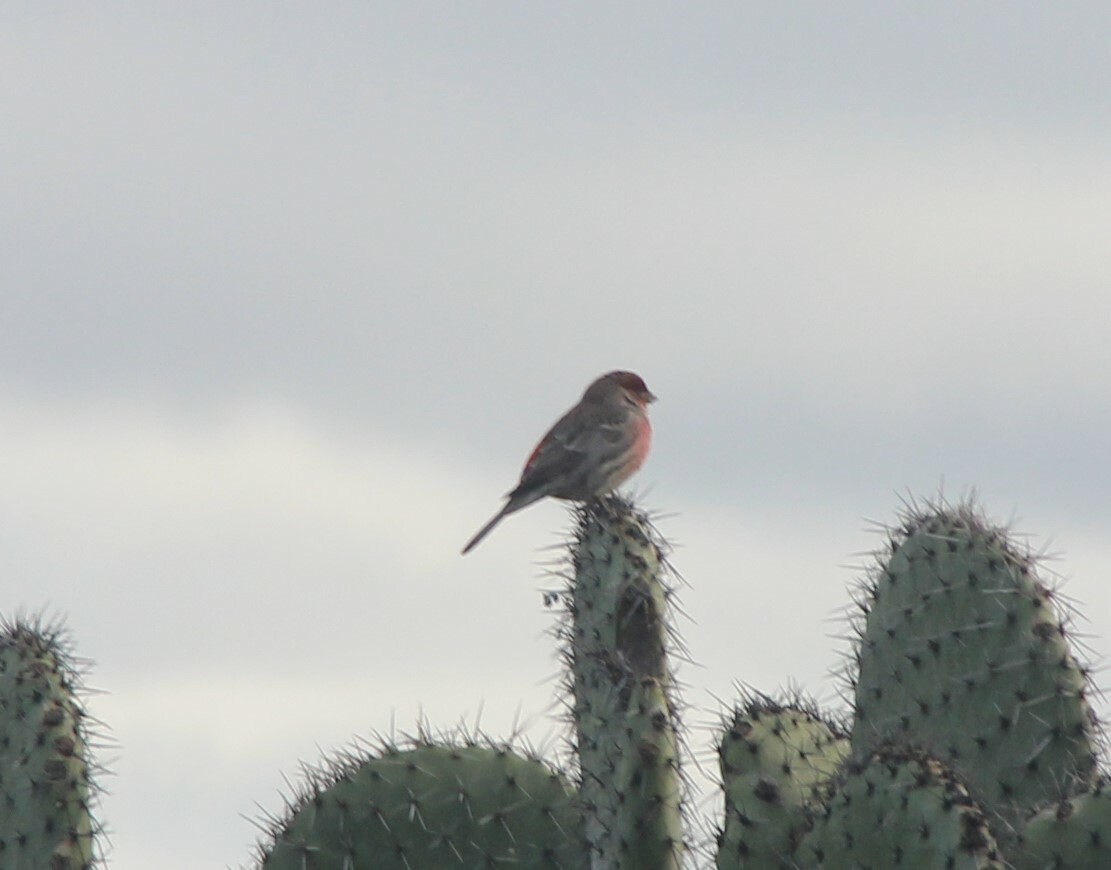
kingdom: Animalia
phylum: Chordata
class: Aves
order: Passeriformes
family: Fringillidae
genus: Haemorhous
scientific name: Haemorhous mexicanus
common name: House finch
